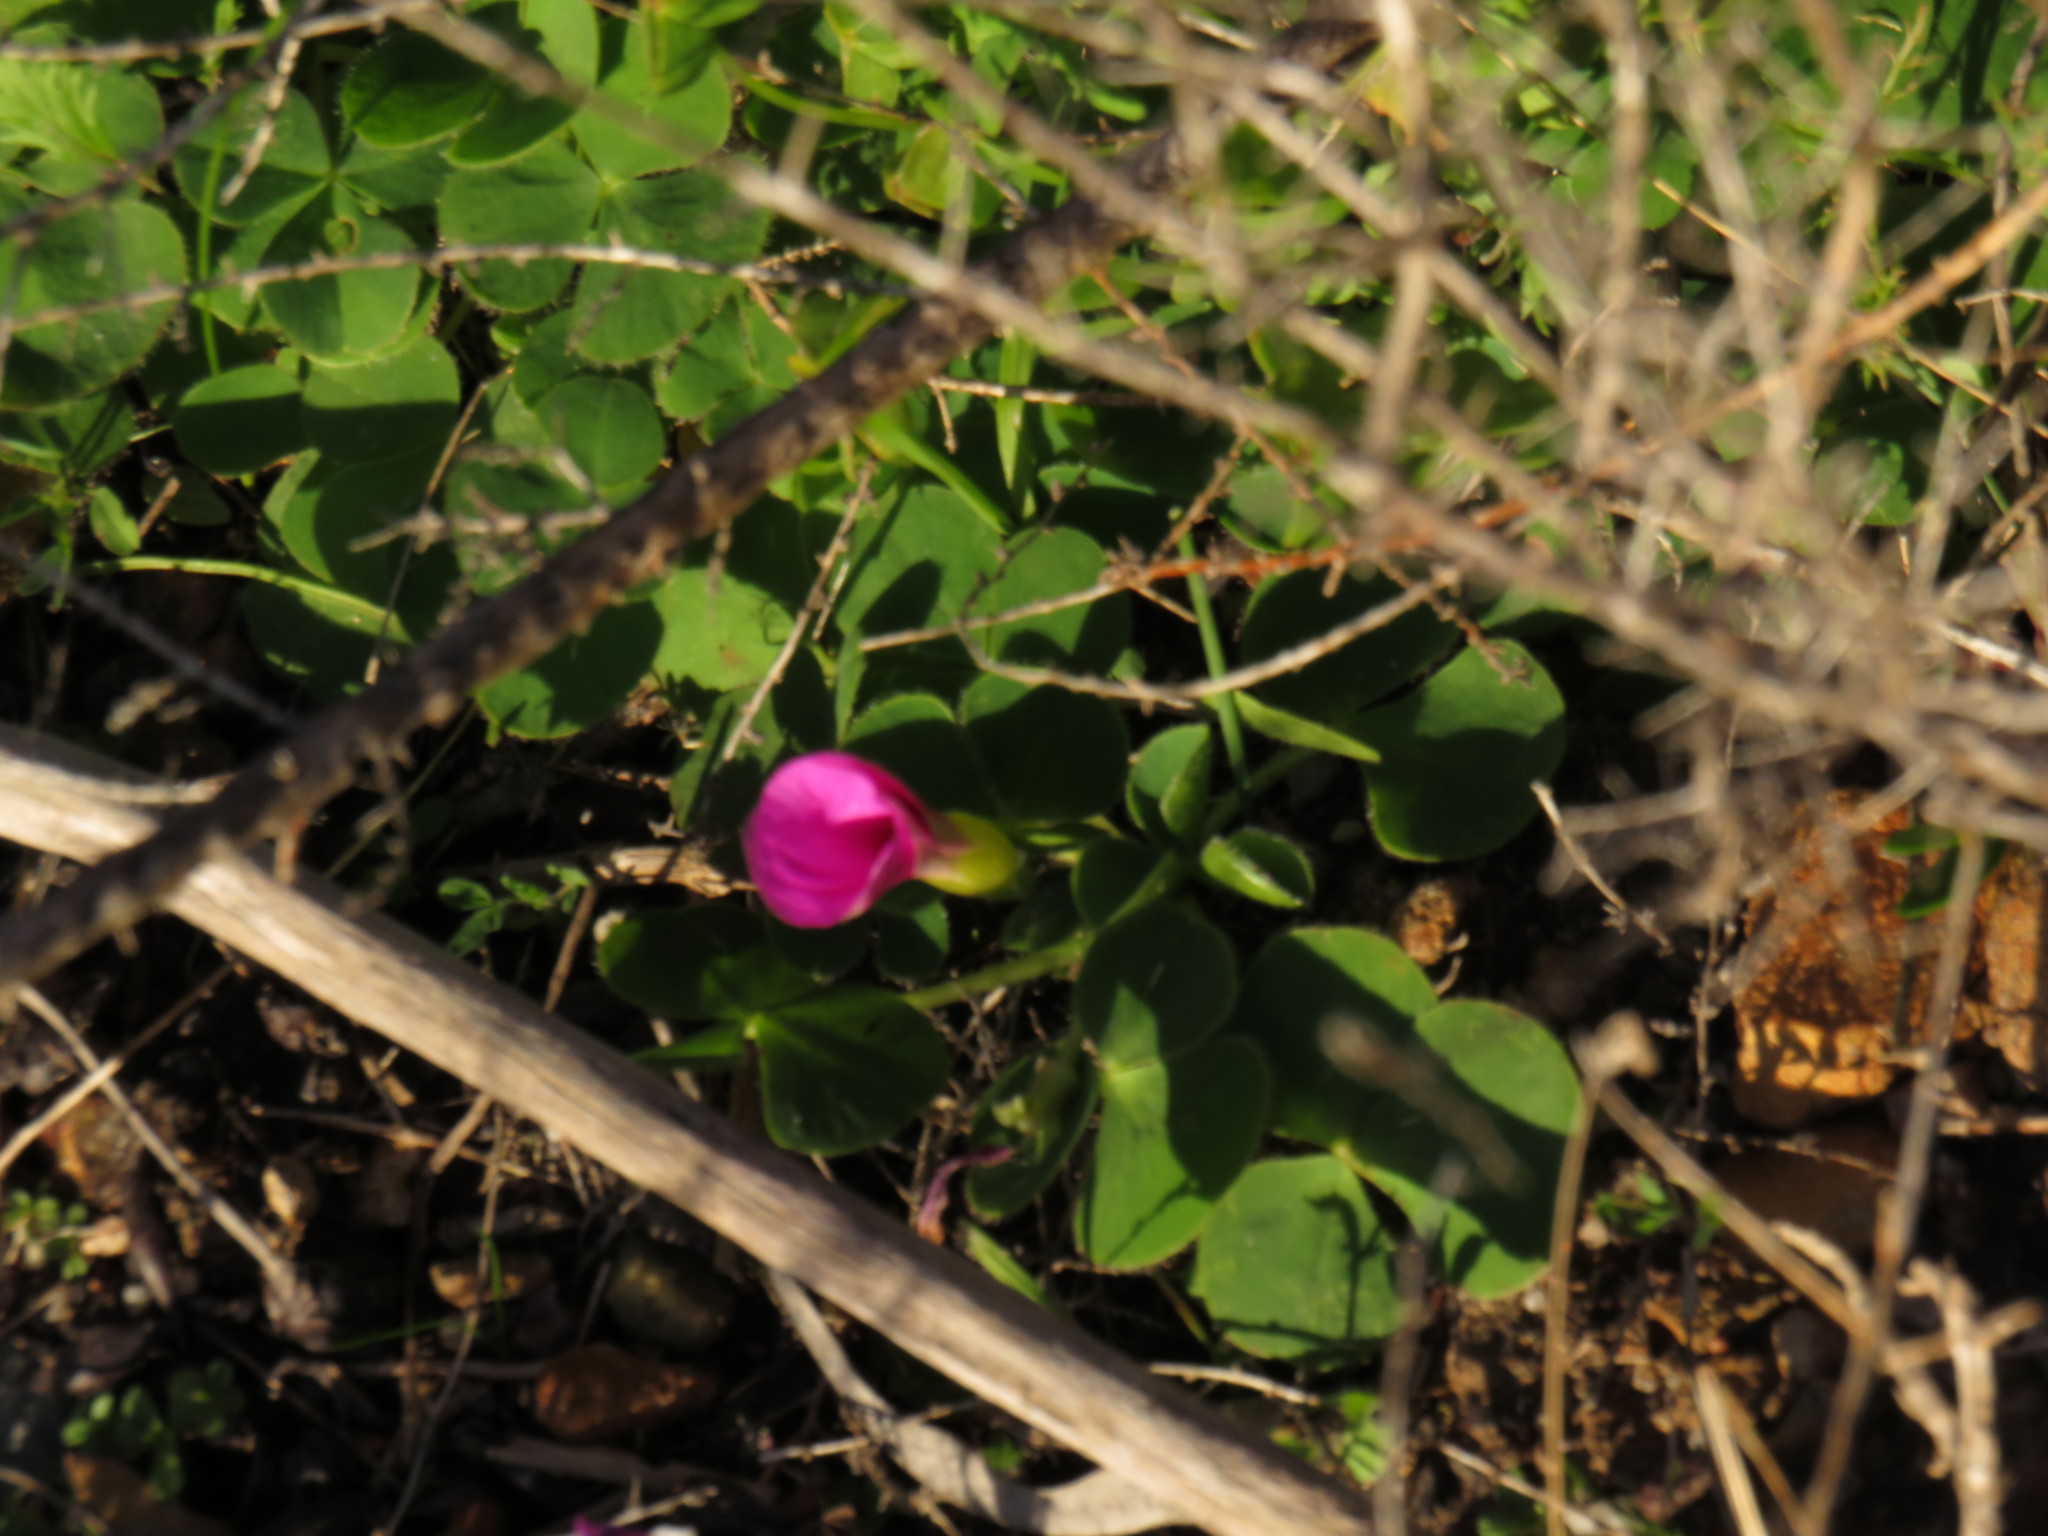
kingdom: Plantae
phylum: Tracheophyta
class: Magnoliopsida
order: Oxalidales
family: Oxalidaceae
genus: Oxalis
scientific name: Oxalis purpurea
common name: Purple woodsorrel
